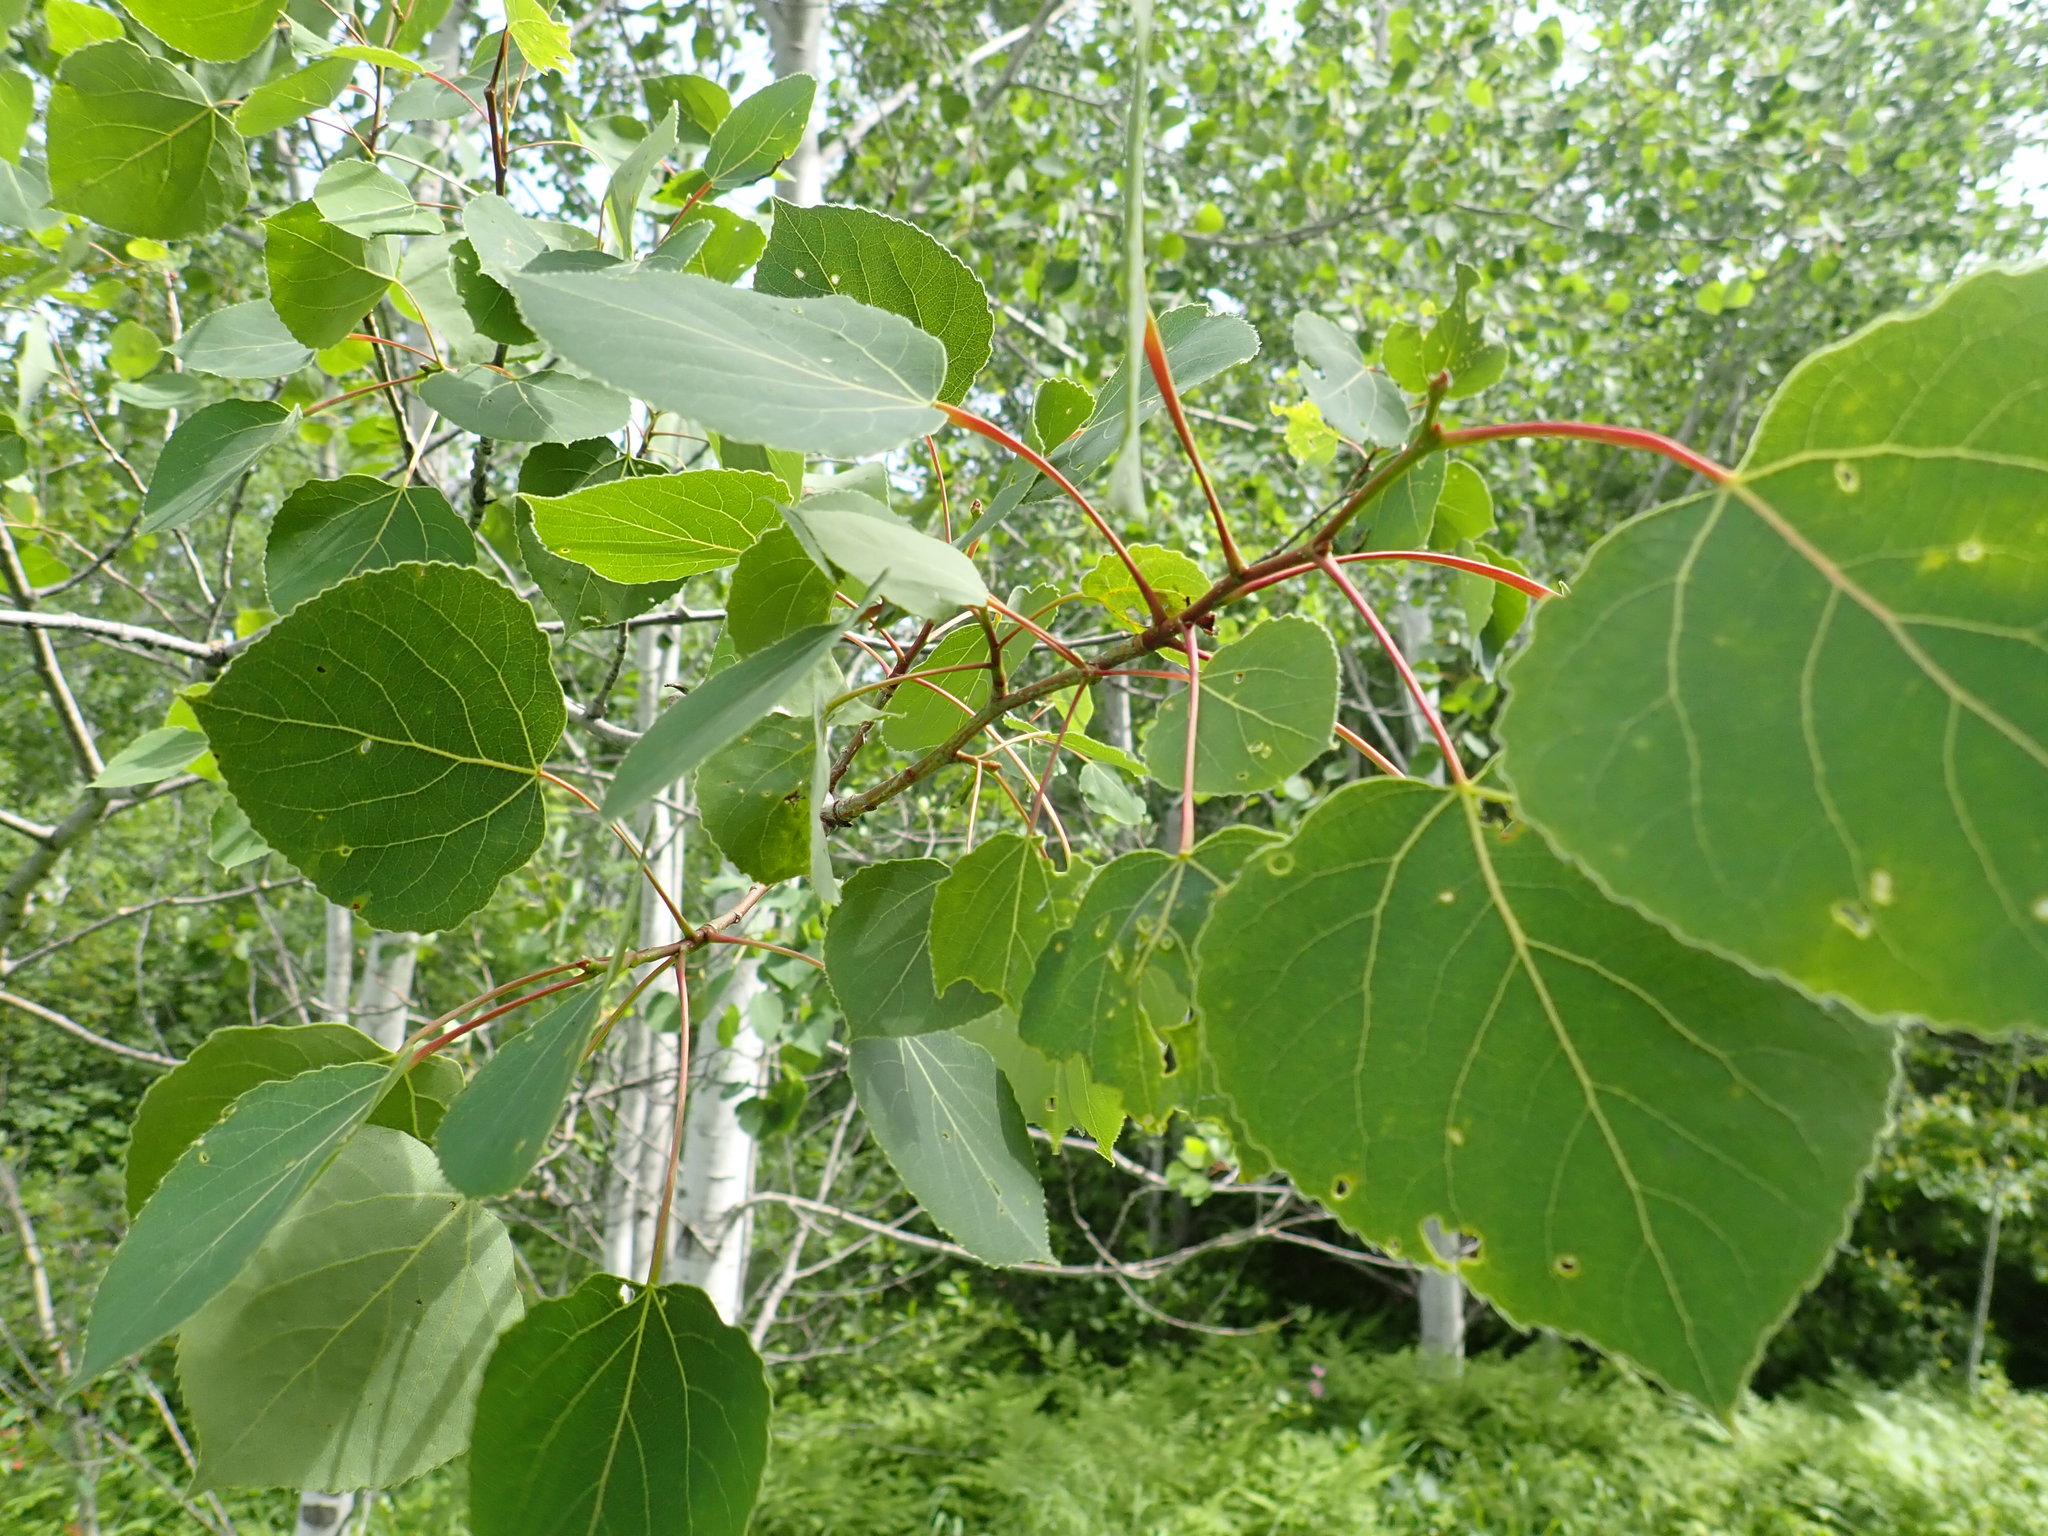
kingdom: Plantae
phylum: Tracheophyta
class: Magnoliopsida
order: Malpighiales
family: Salicaceae
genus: Populus
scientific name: Populus tremuloides
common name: Quaking aspen
